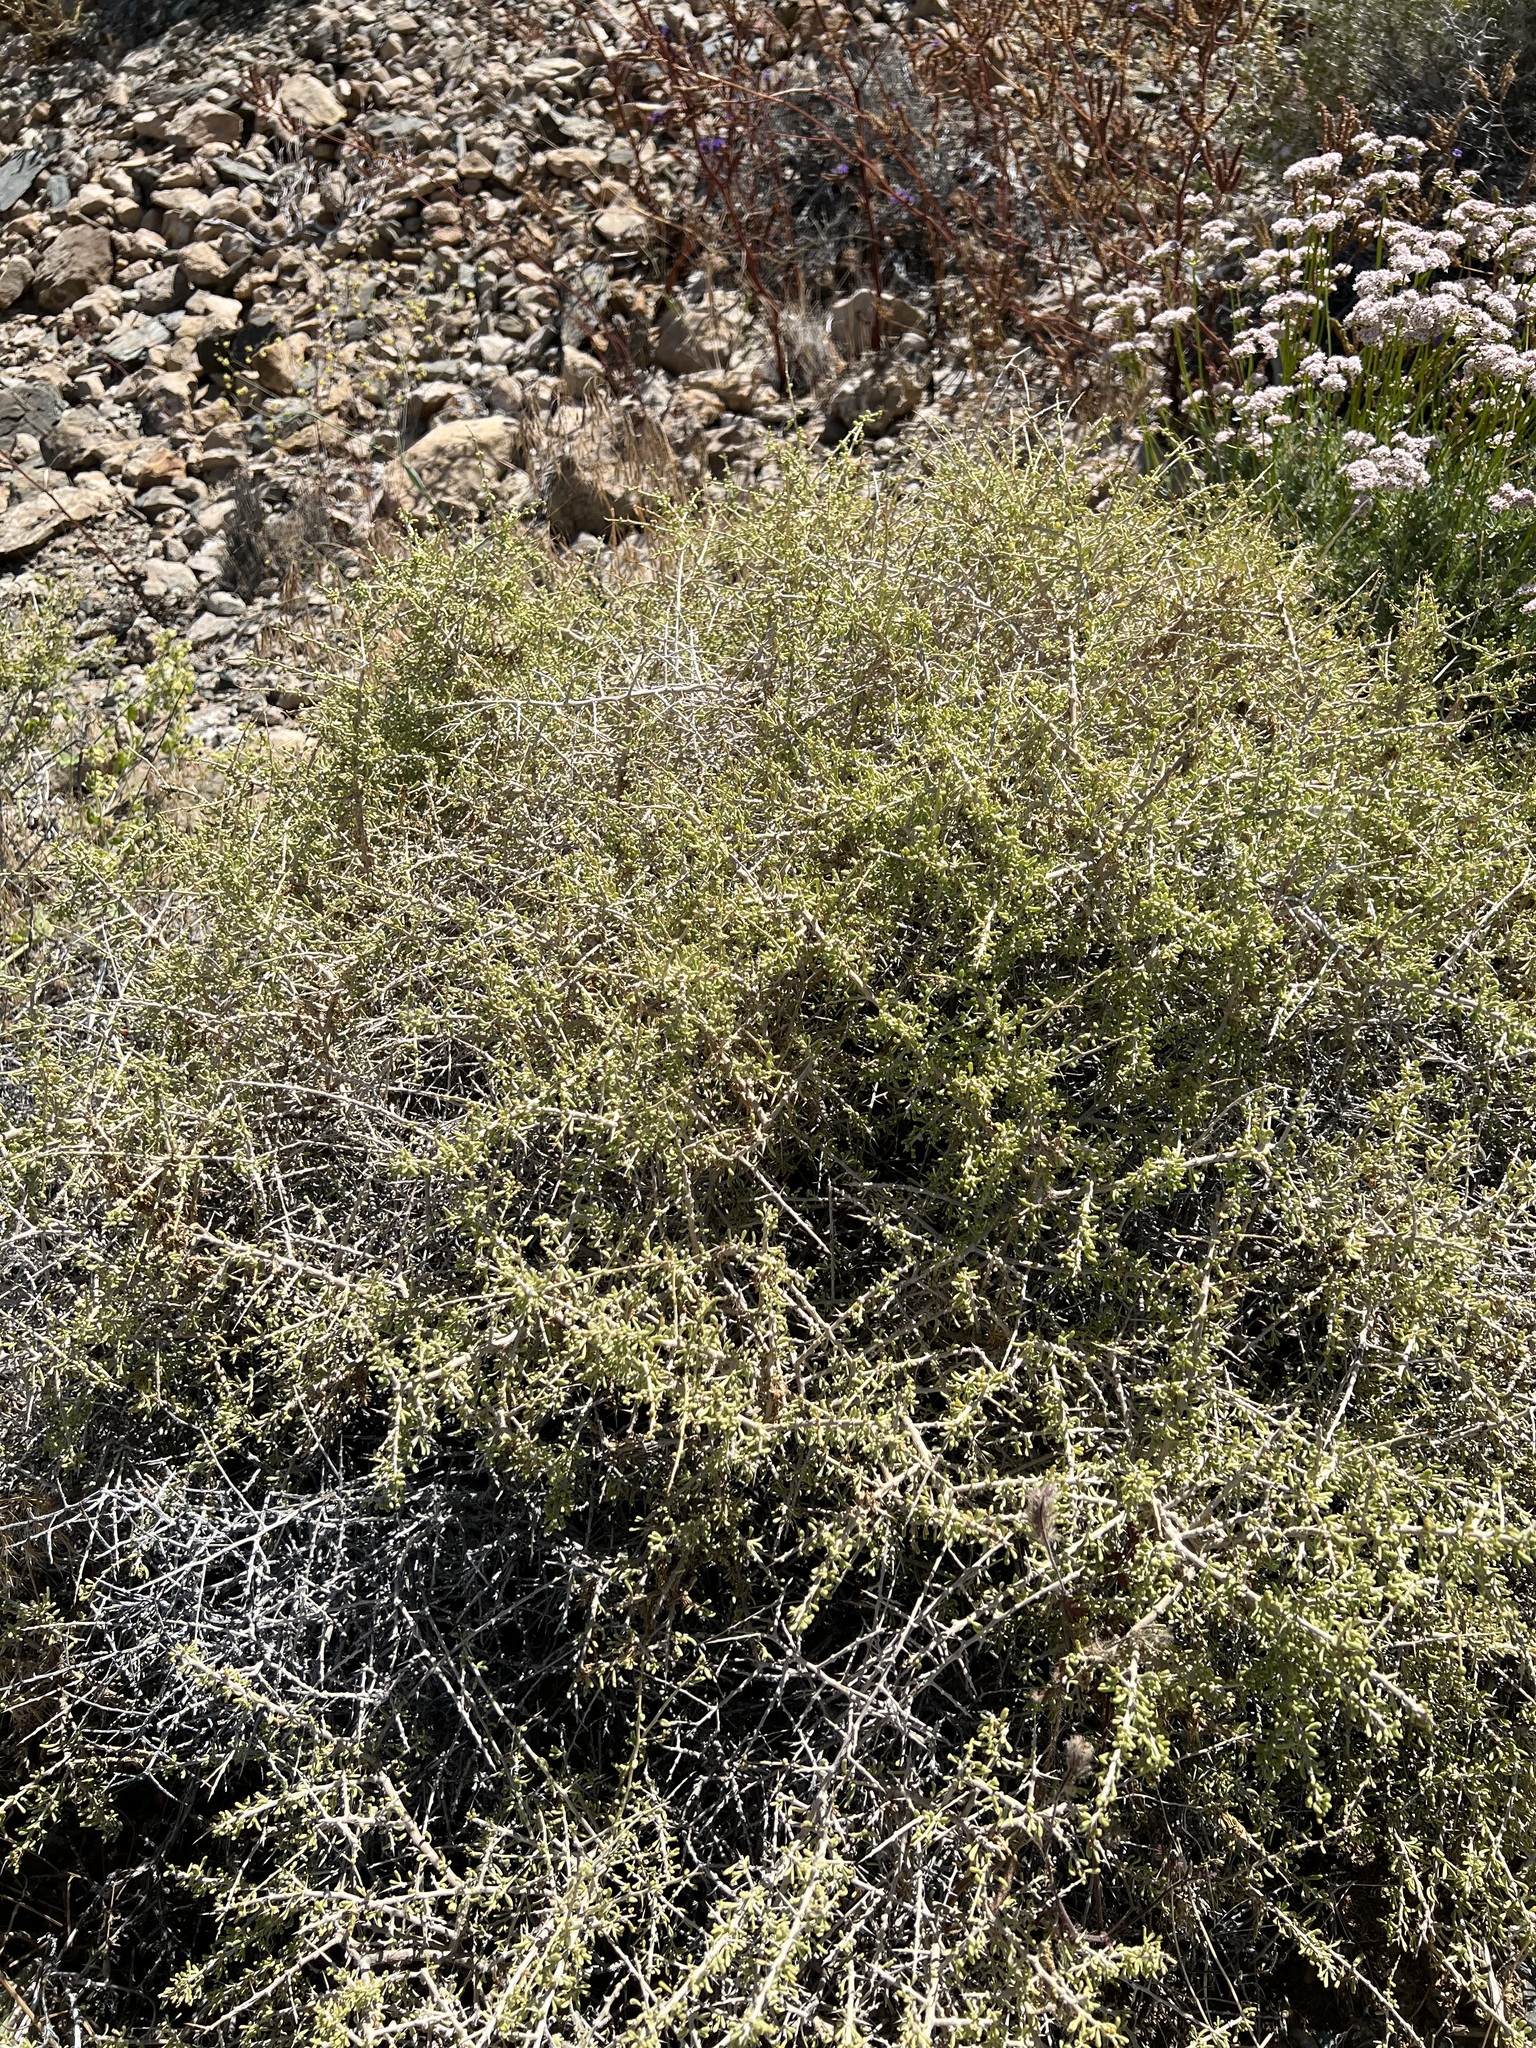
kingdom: Plantae
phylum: Tracheophyta
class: Magnoliopsida
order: Solanales
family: Solanaceae
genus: Lycium
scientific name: Lycium andersonii
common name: Water-jacket
